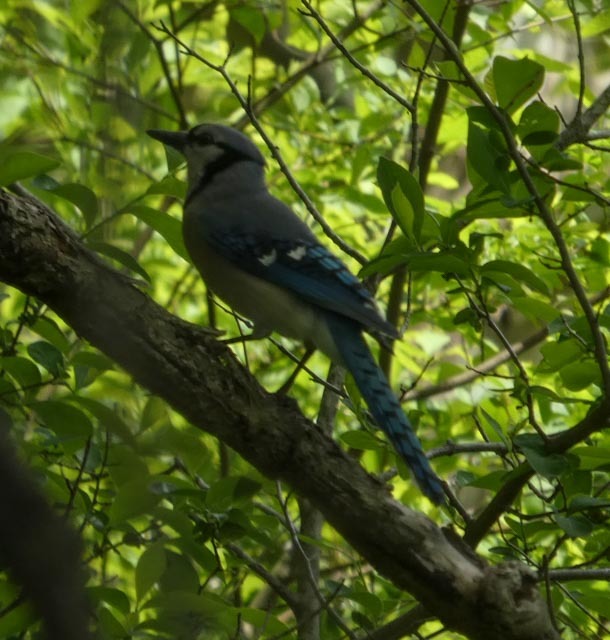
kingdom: Animalia
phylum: Chordata
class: Aves
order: Passeriformes
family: Corvidae
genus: Cyanocitta
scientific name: Cyanocitta cristata
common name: Blue jay
